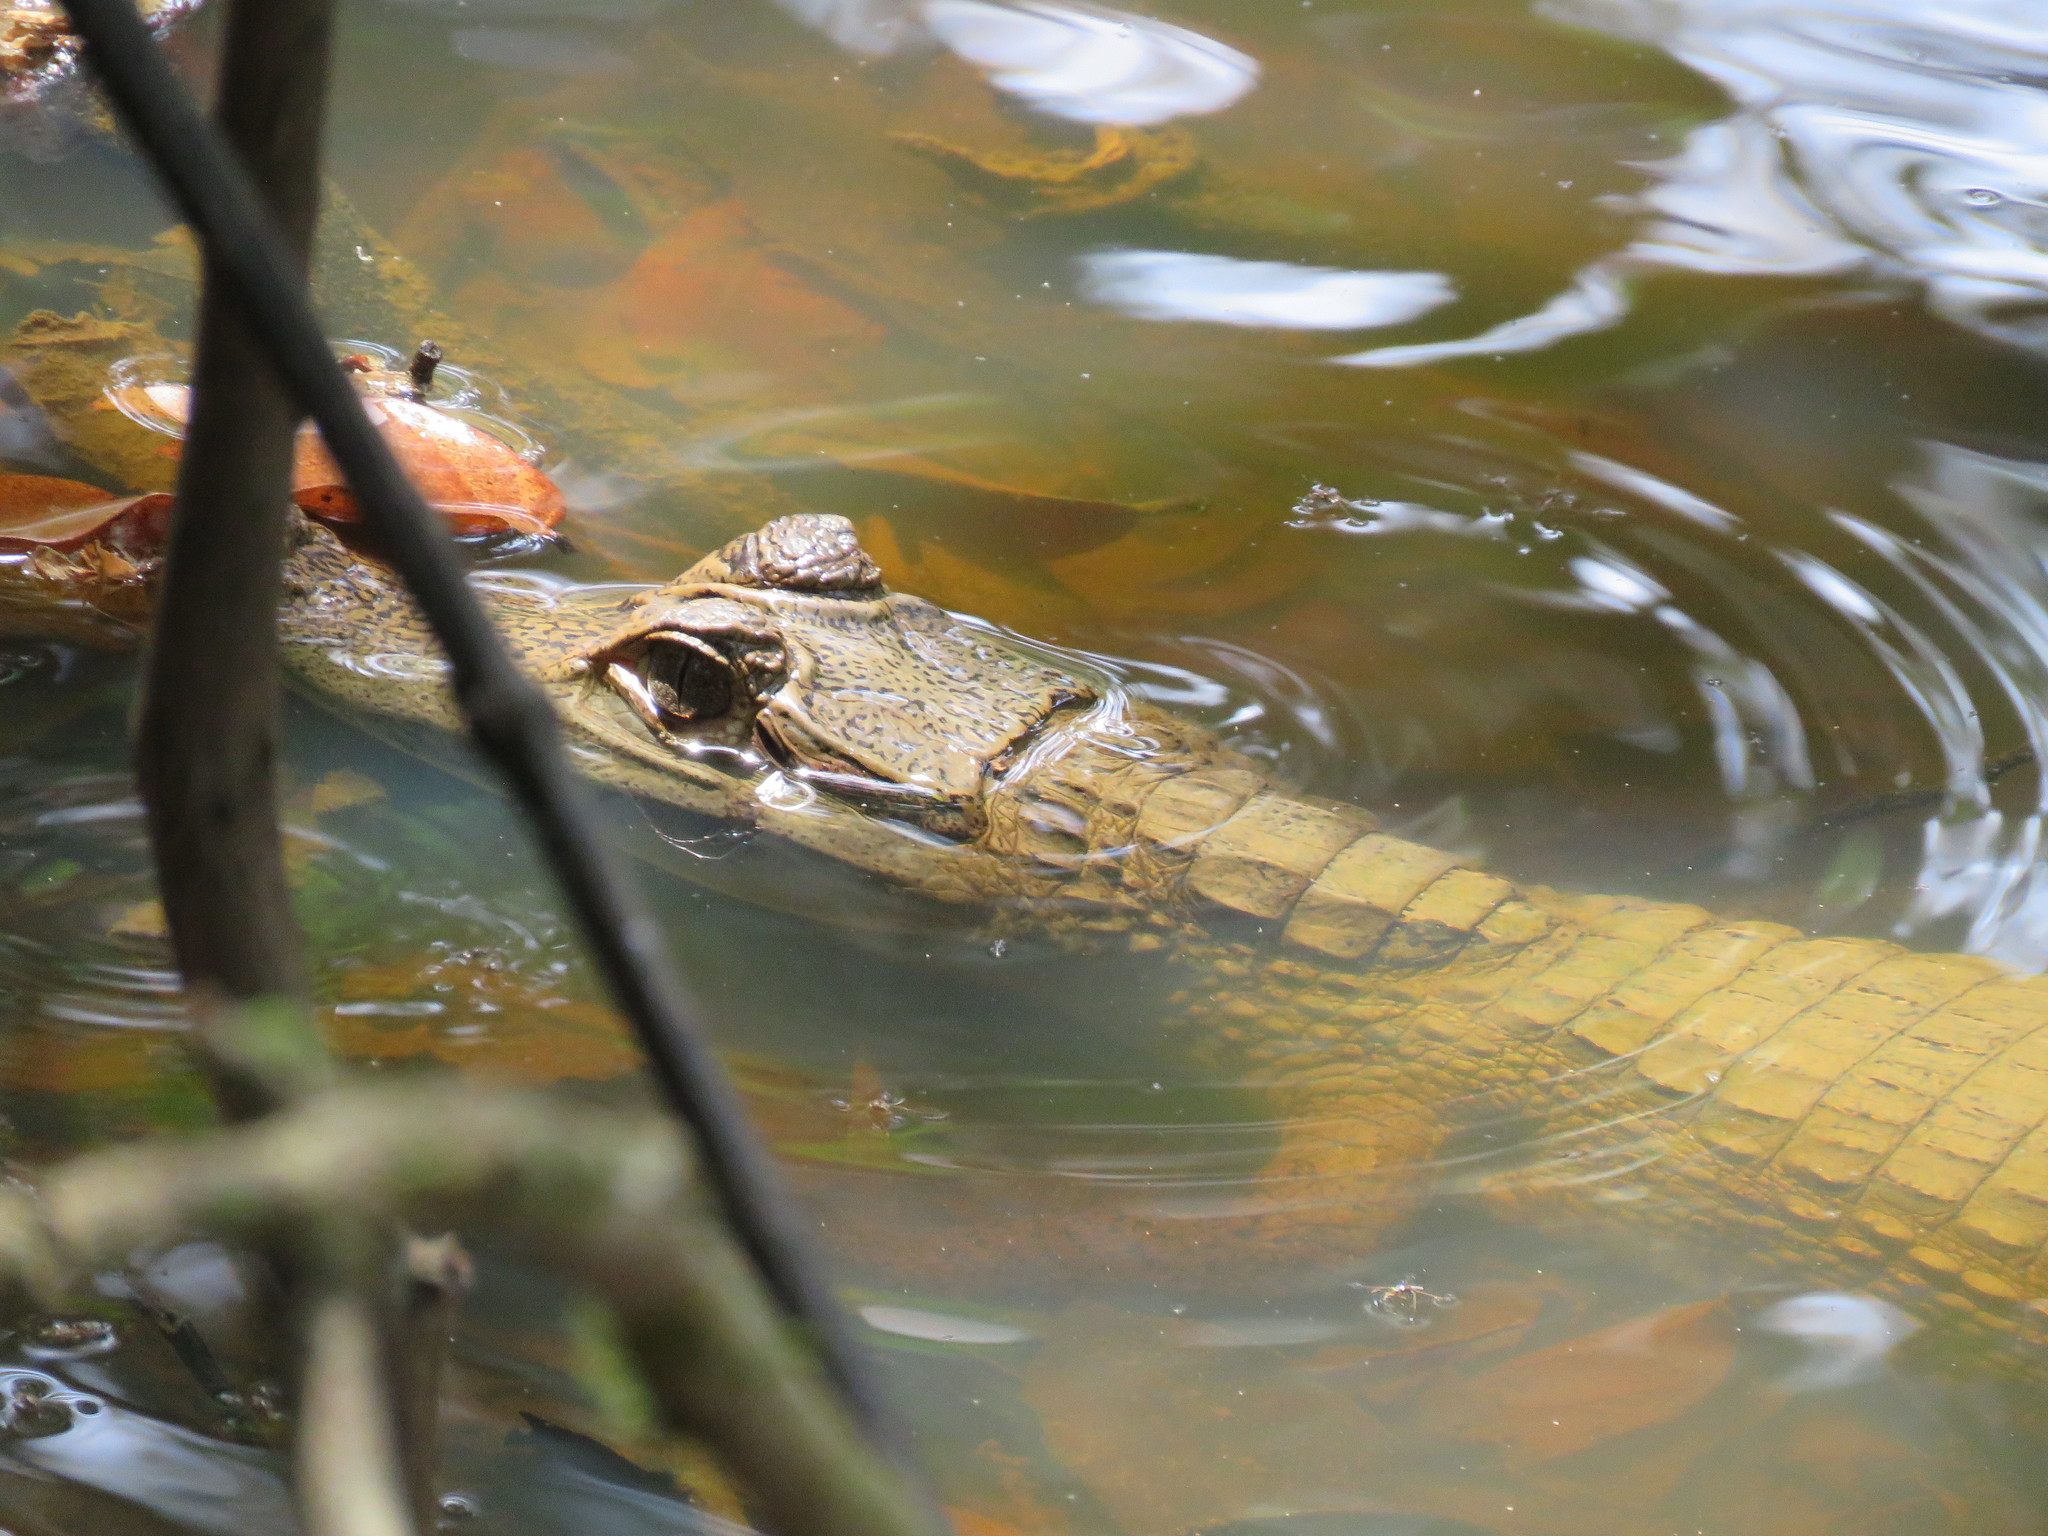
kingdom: Animalia
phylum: Chordata
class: Crocodylia
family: Alligatoridae
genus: Caiman
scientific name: Caiman yacare
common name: Yacare caiman
